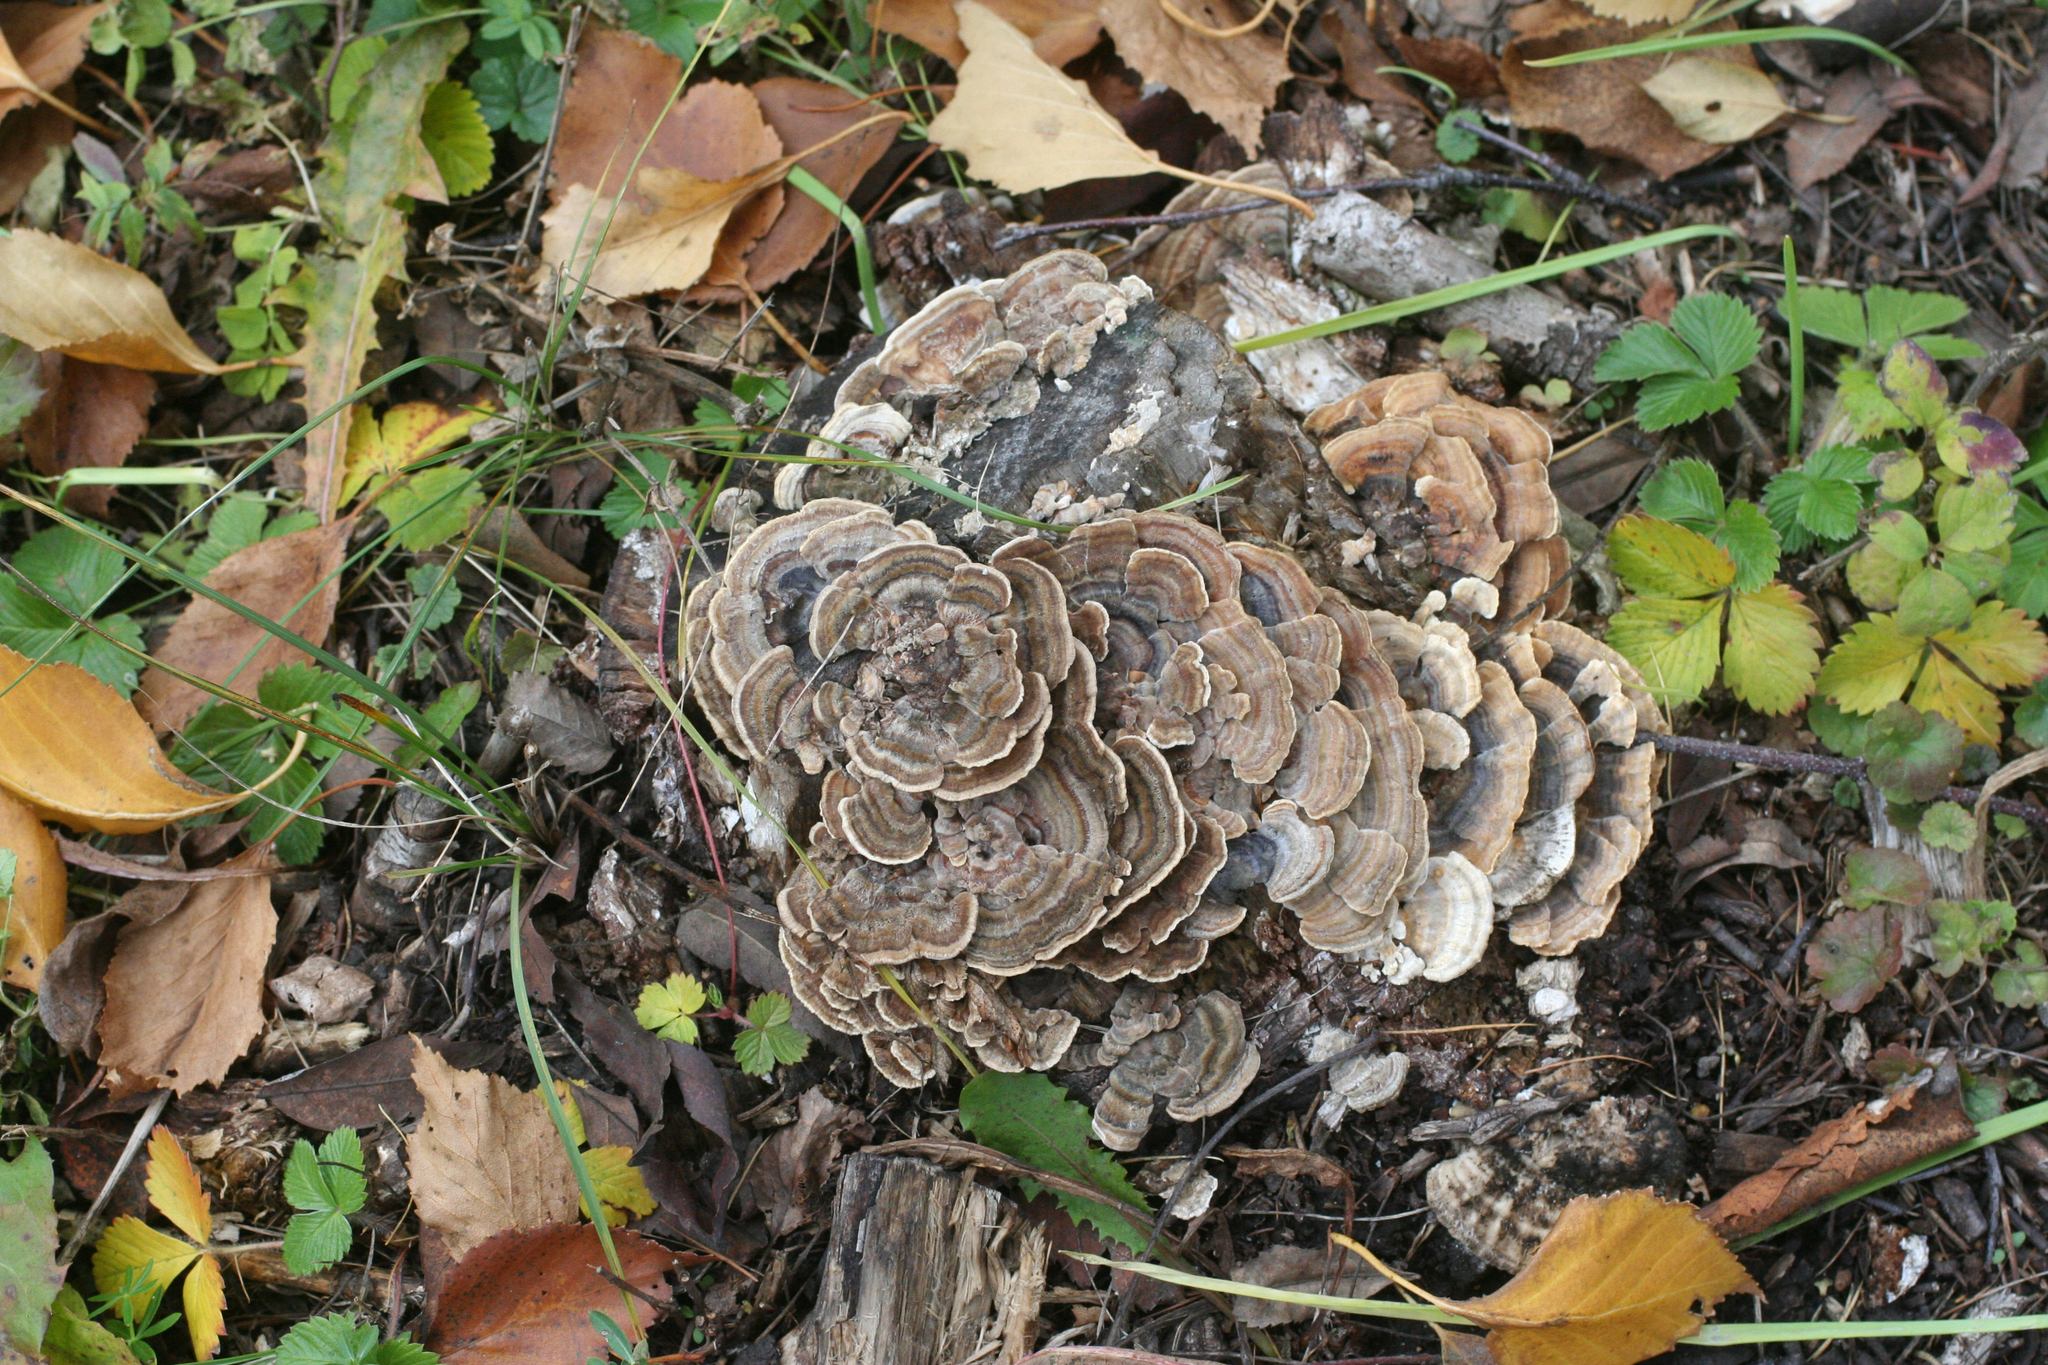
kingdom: Fungi
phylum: Basidiomycota
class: Agaricomycetes
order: Polyporales
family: Polyporaceae
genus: Trametes
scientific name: Trametes versicolor
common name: Turkeytail
